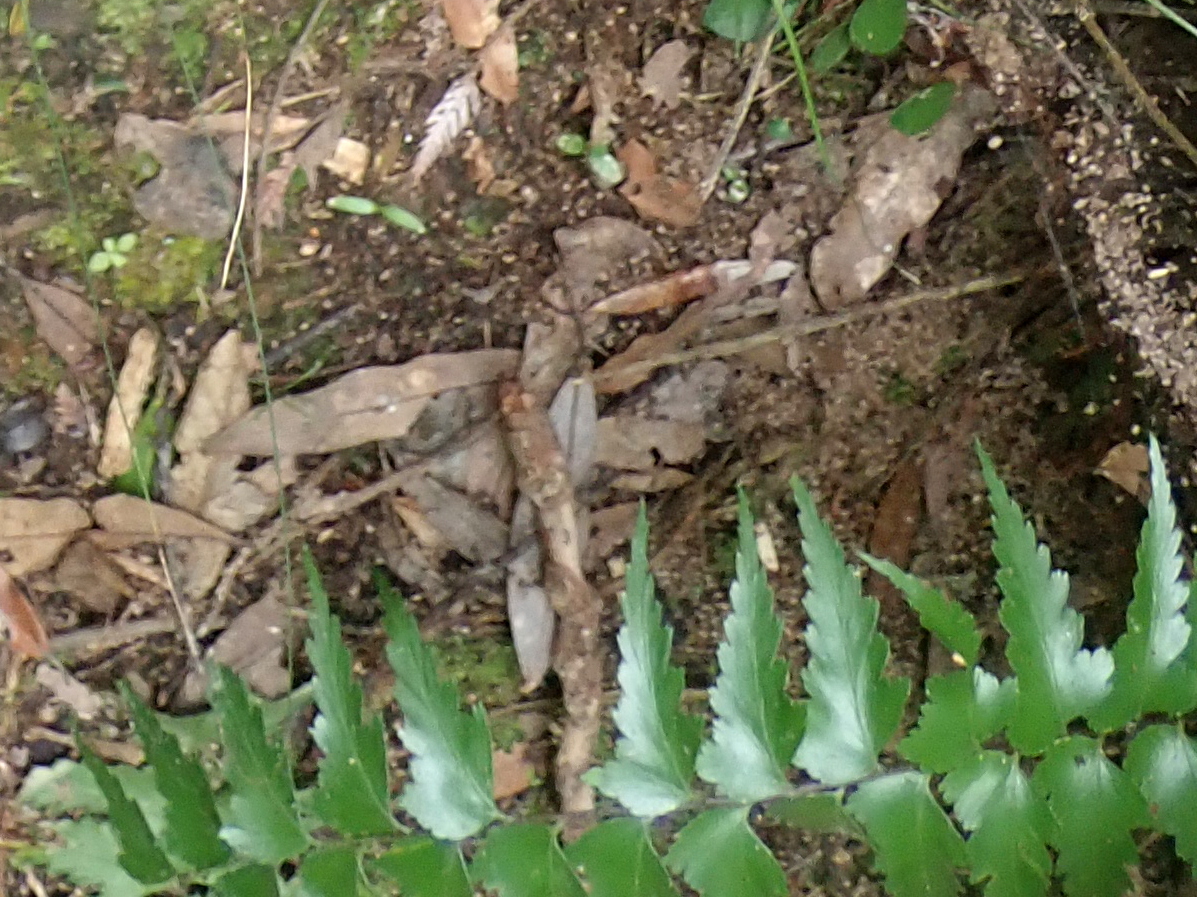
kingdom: Plantae
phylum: Tracheophyta
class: Polypodiopsida
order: Polypodiales
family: Aspleniaceae
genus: Asplenium
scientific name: Asplenium polyodon
